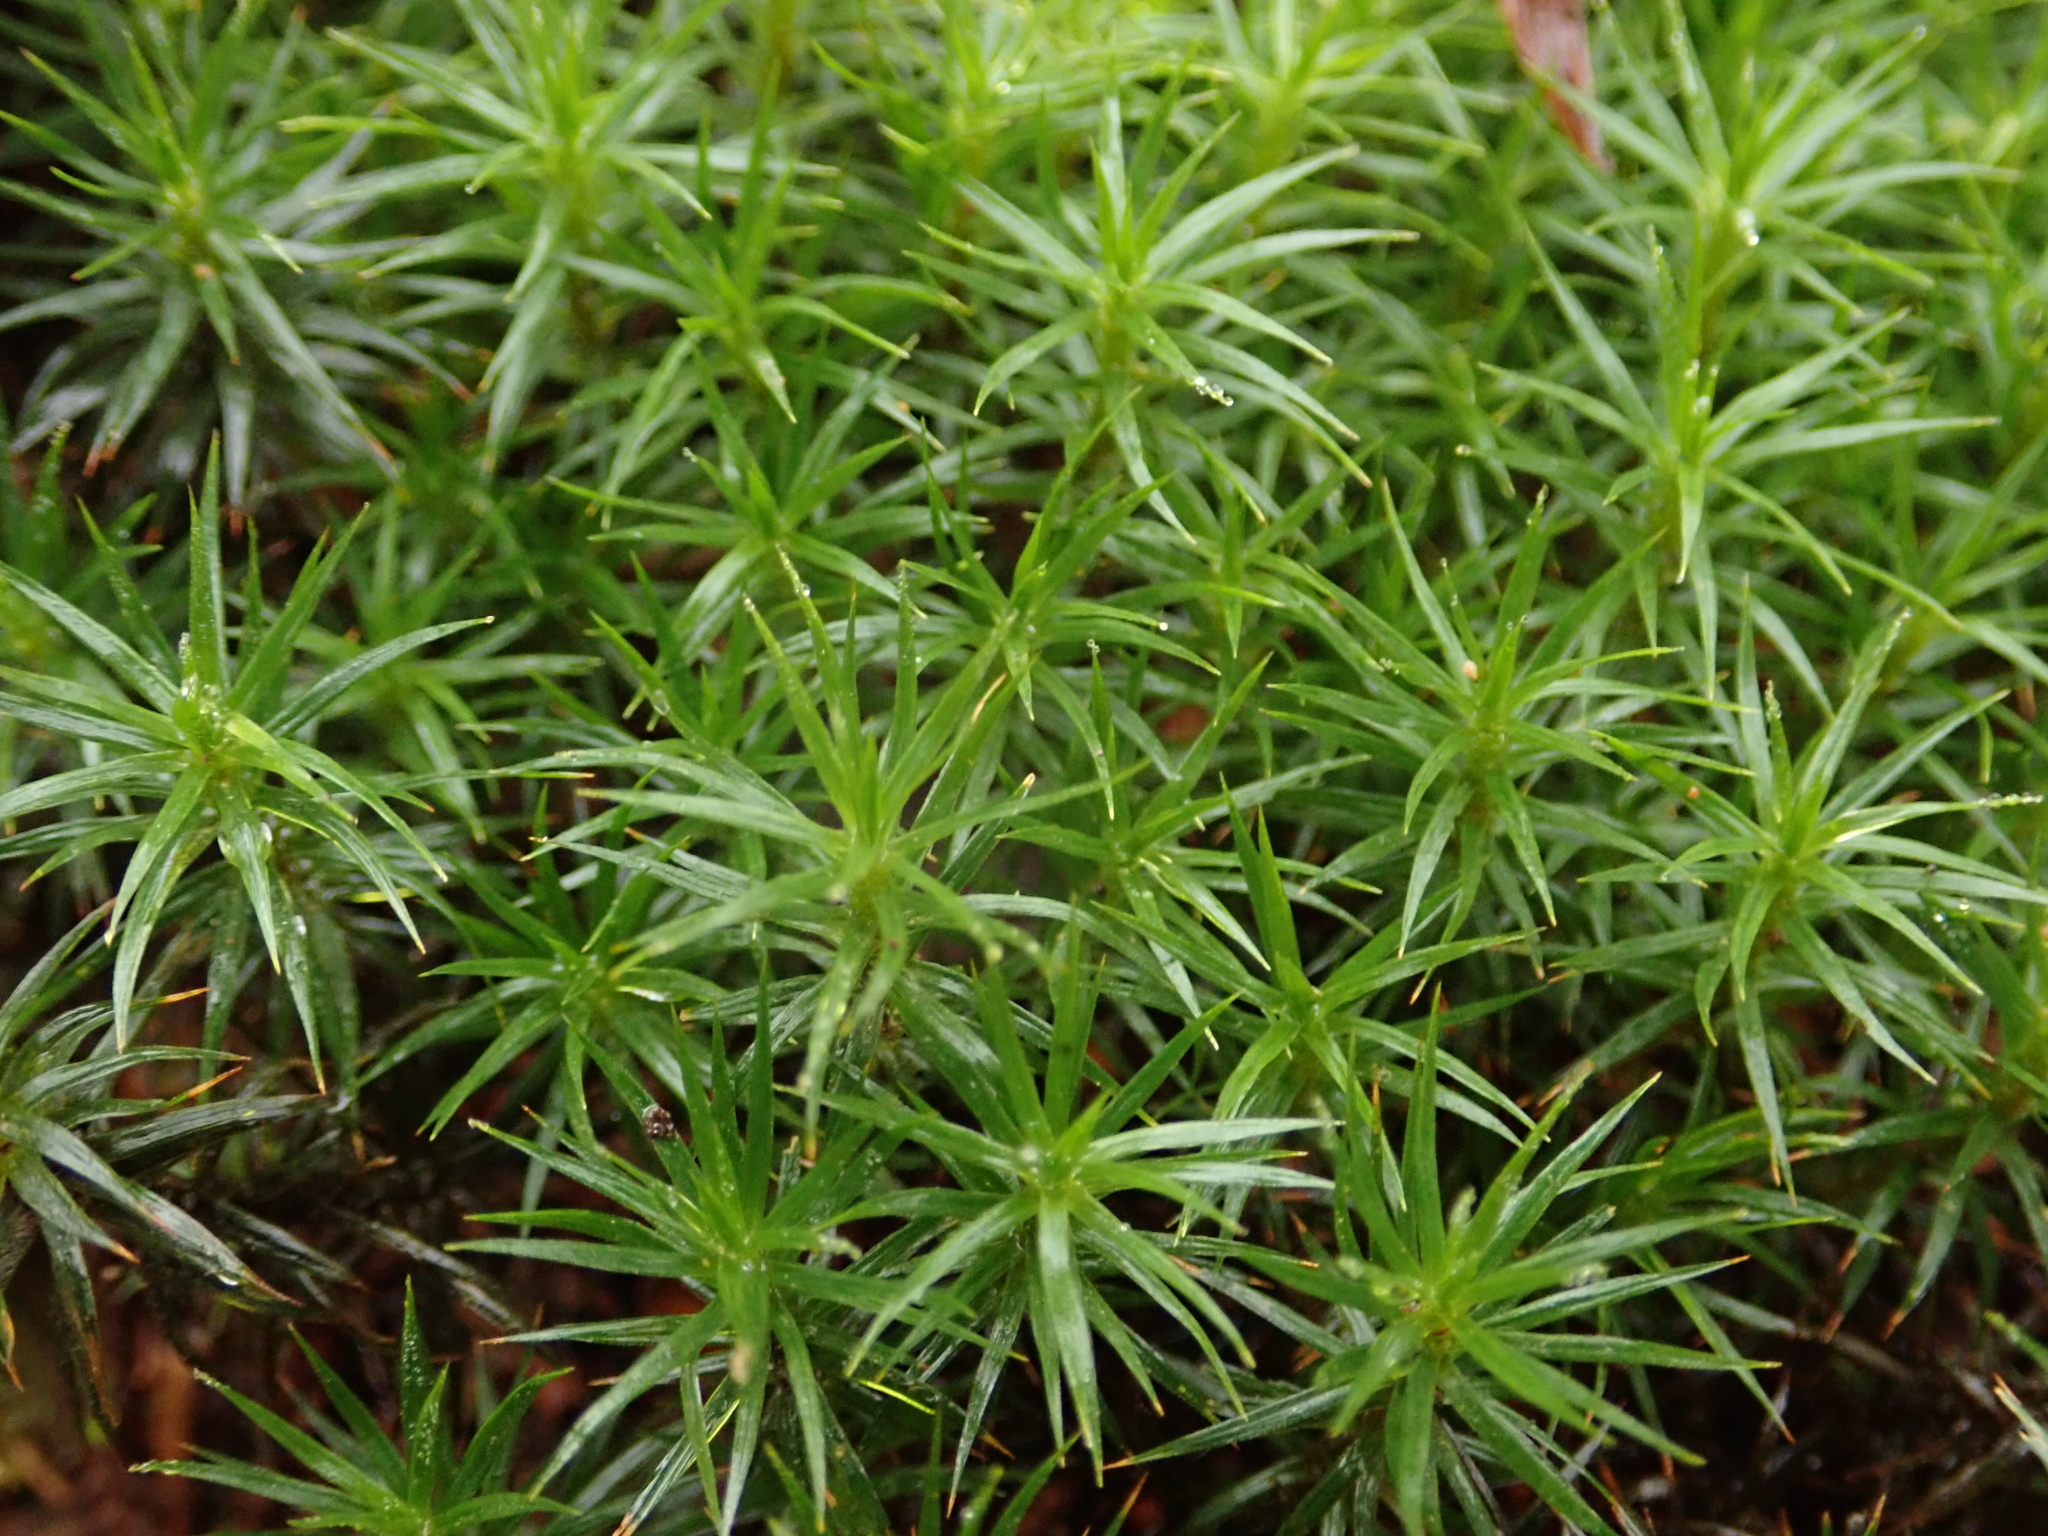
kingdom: Plantae
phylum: Bryophyta
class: Polytrichopsida
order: Polytrichales
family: Polytrichaceae
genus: Polytrichum
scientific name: Polytrichum formosum
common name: Bank haircap moss
